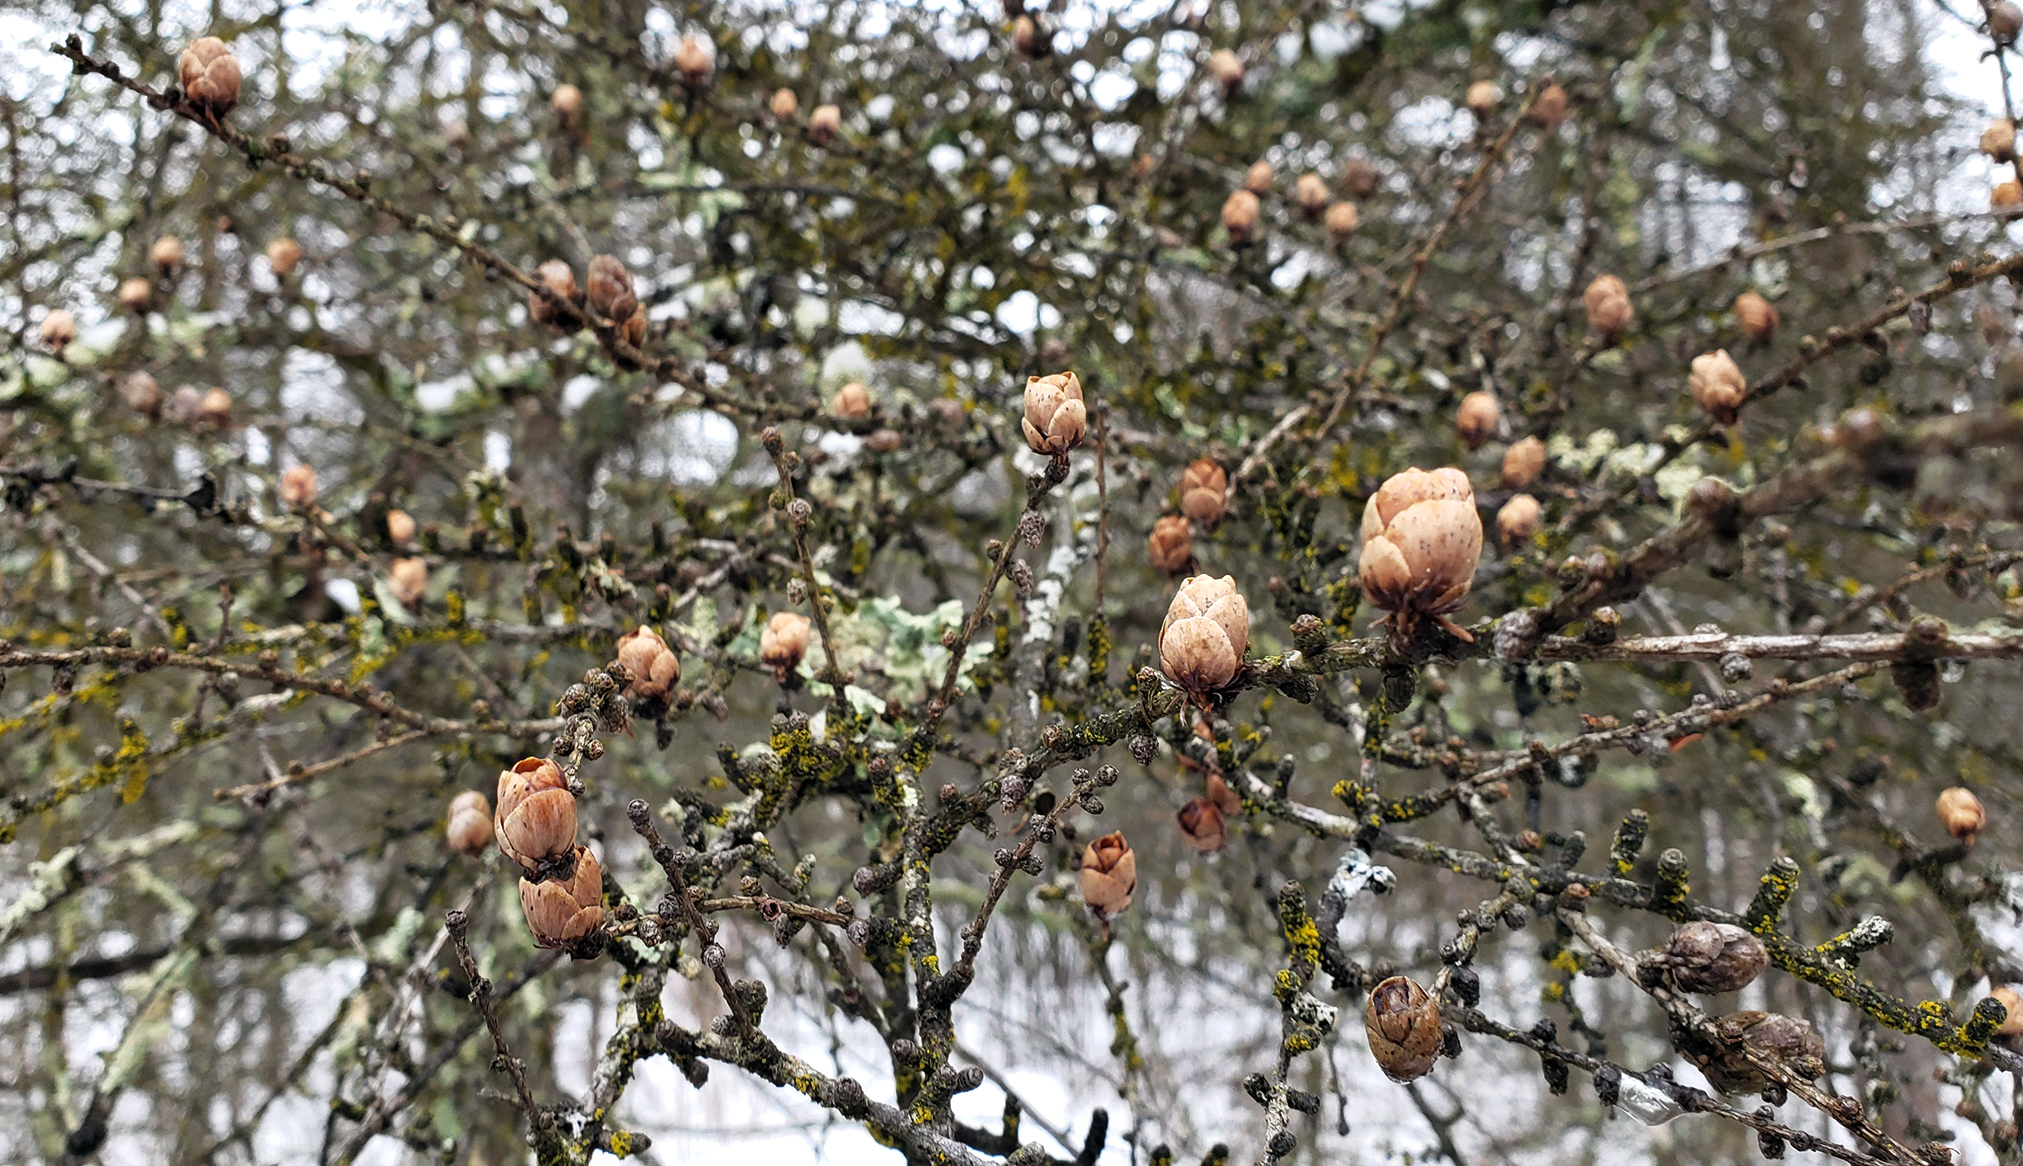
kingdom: Plantae
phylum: Tracheophyta
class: Pinopsida
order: Pinales
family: Pinaceae
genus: Larix
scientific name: Larix laricina
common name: American larch
